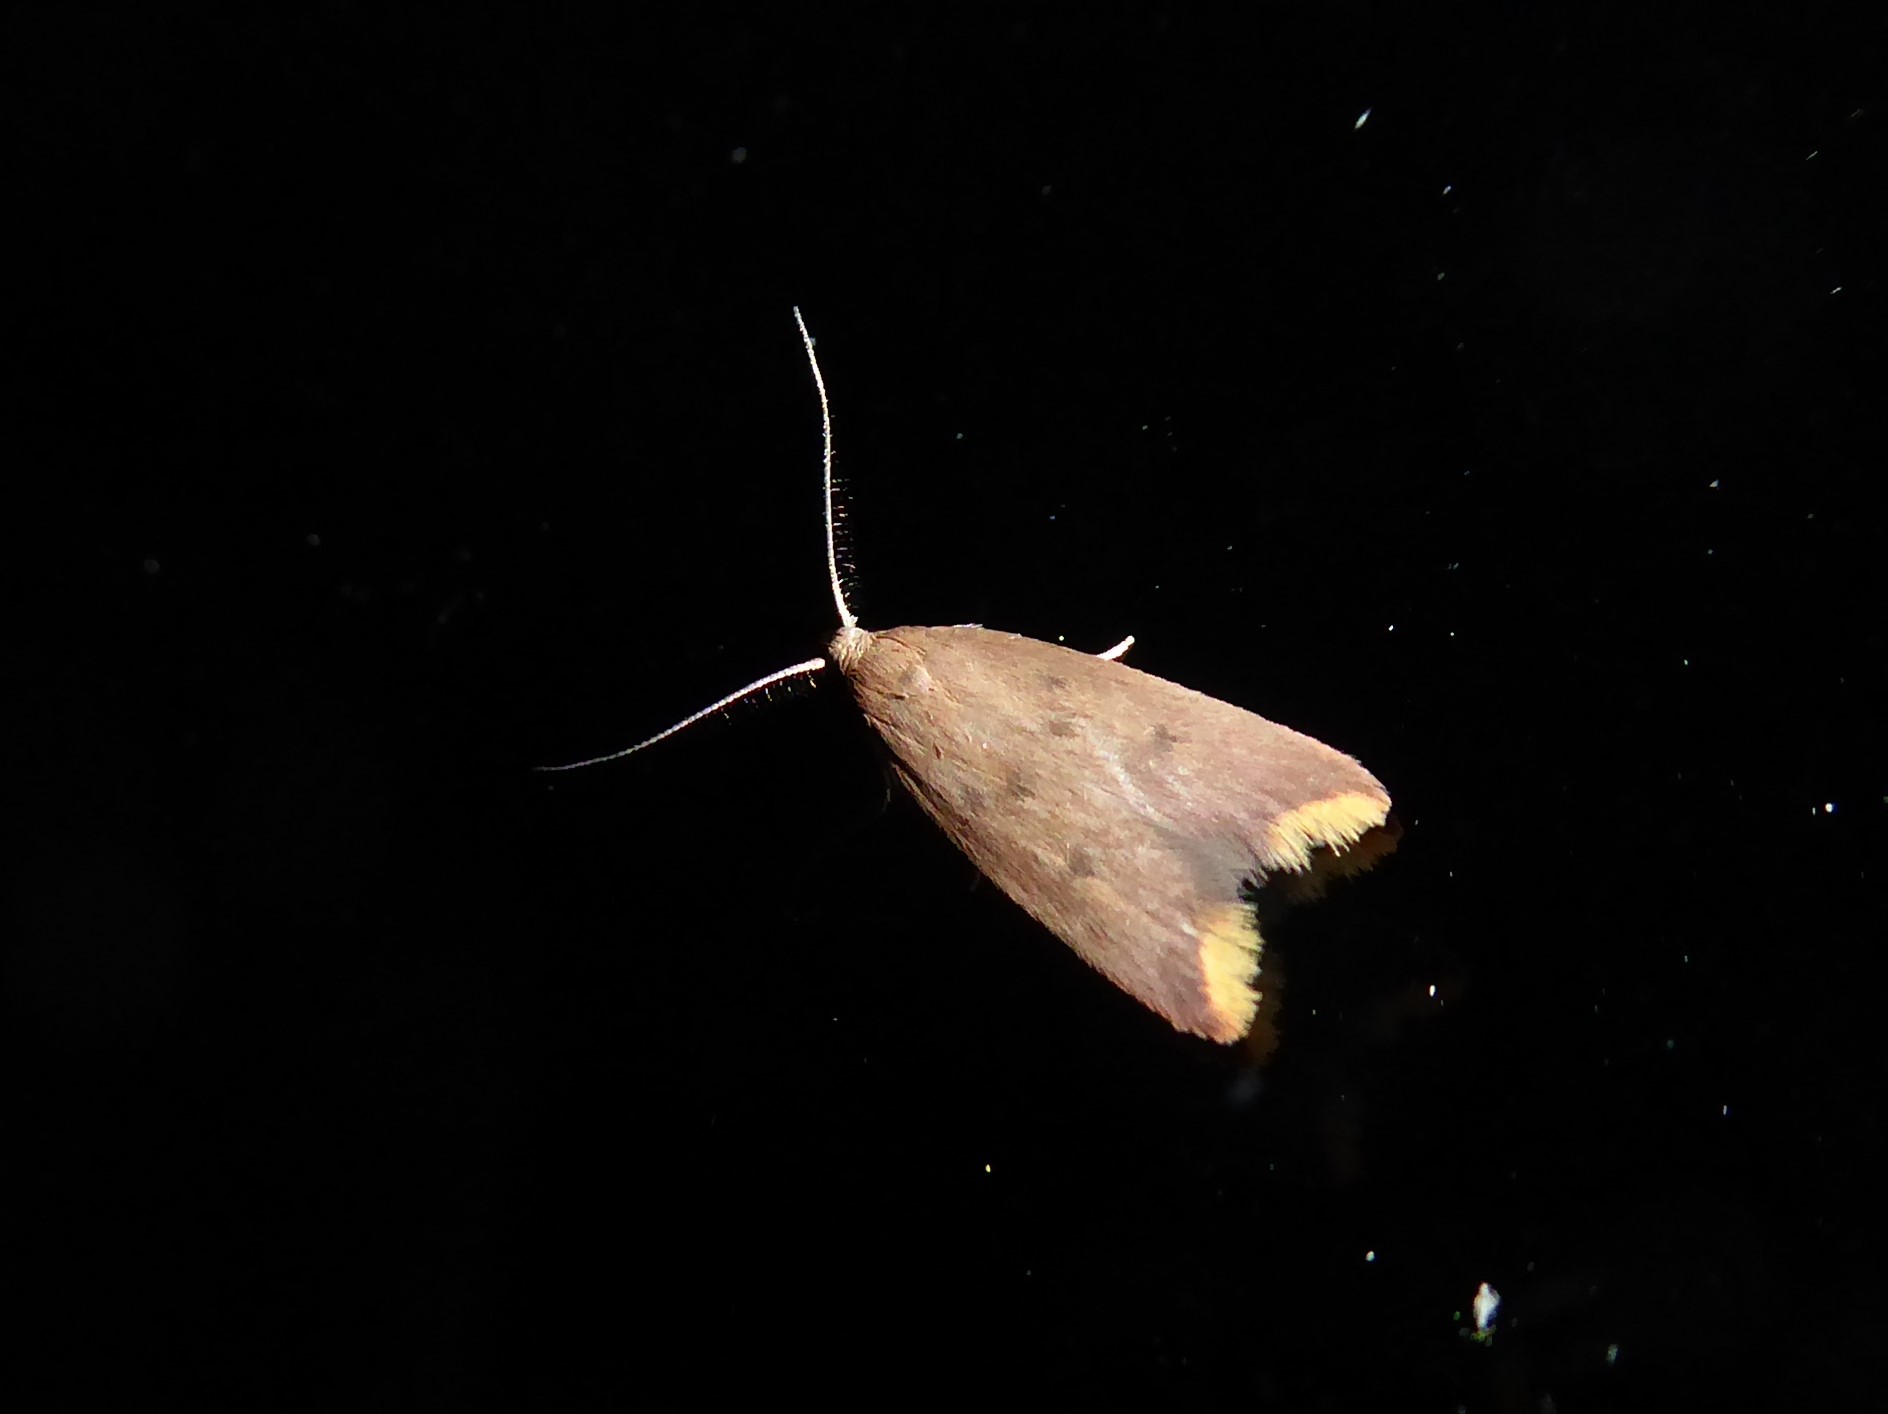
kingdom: Animalia
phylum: Arthropoda
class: Insecta
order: Lepidoptera
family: Oecophoridae
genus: Tachystola
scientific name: Tachystola acroxantha
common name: Ruddy streak
